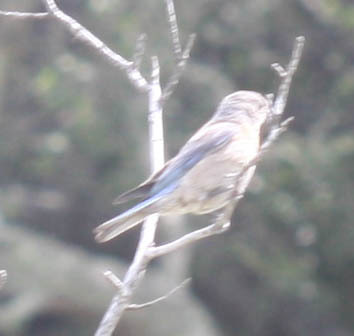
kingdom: Animalia
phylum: Chordata
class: Aves
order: Passeriformes
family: Turdidae
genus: Sialia
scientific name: Sialia mexicana
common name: Western bluebird
